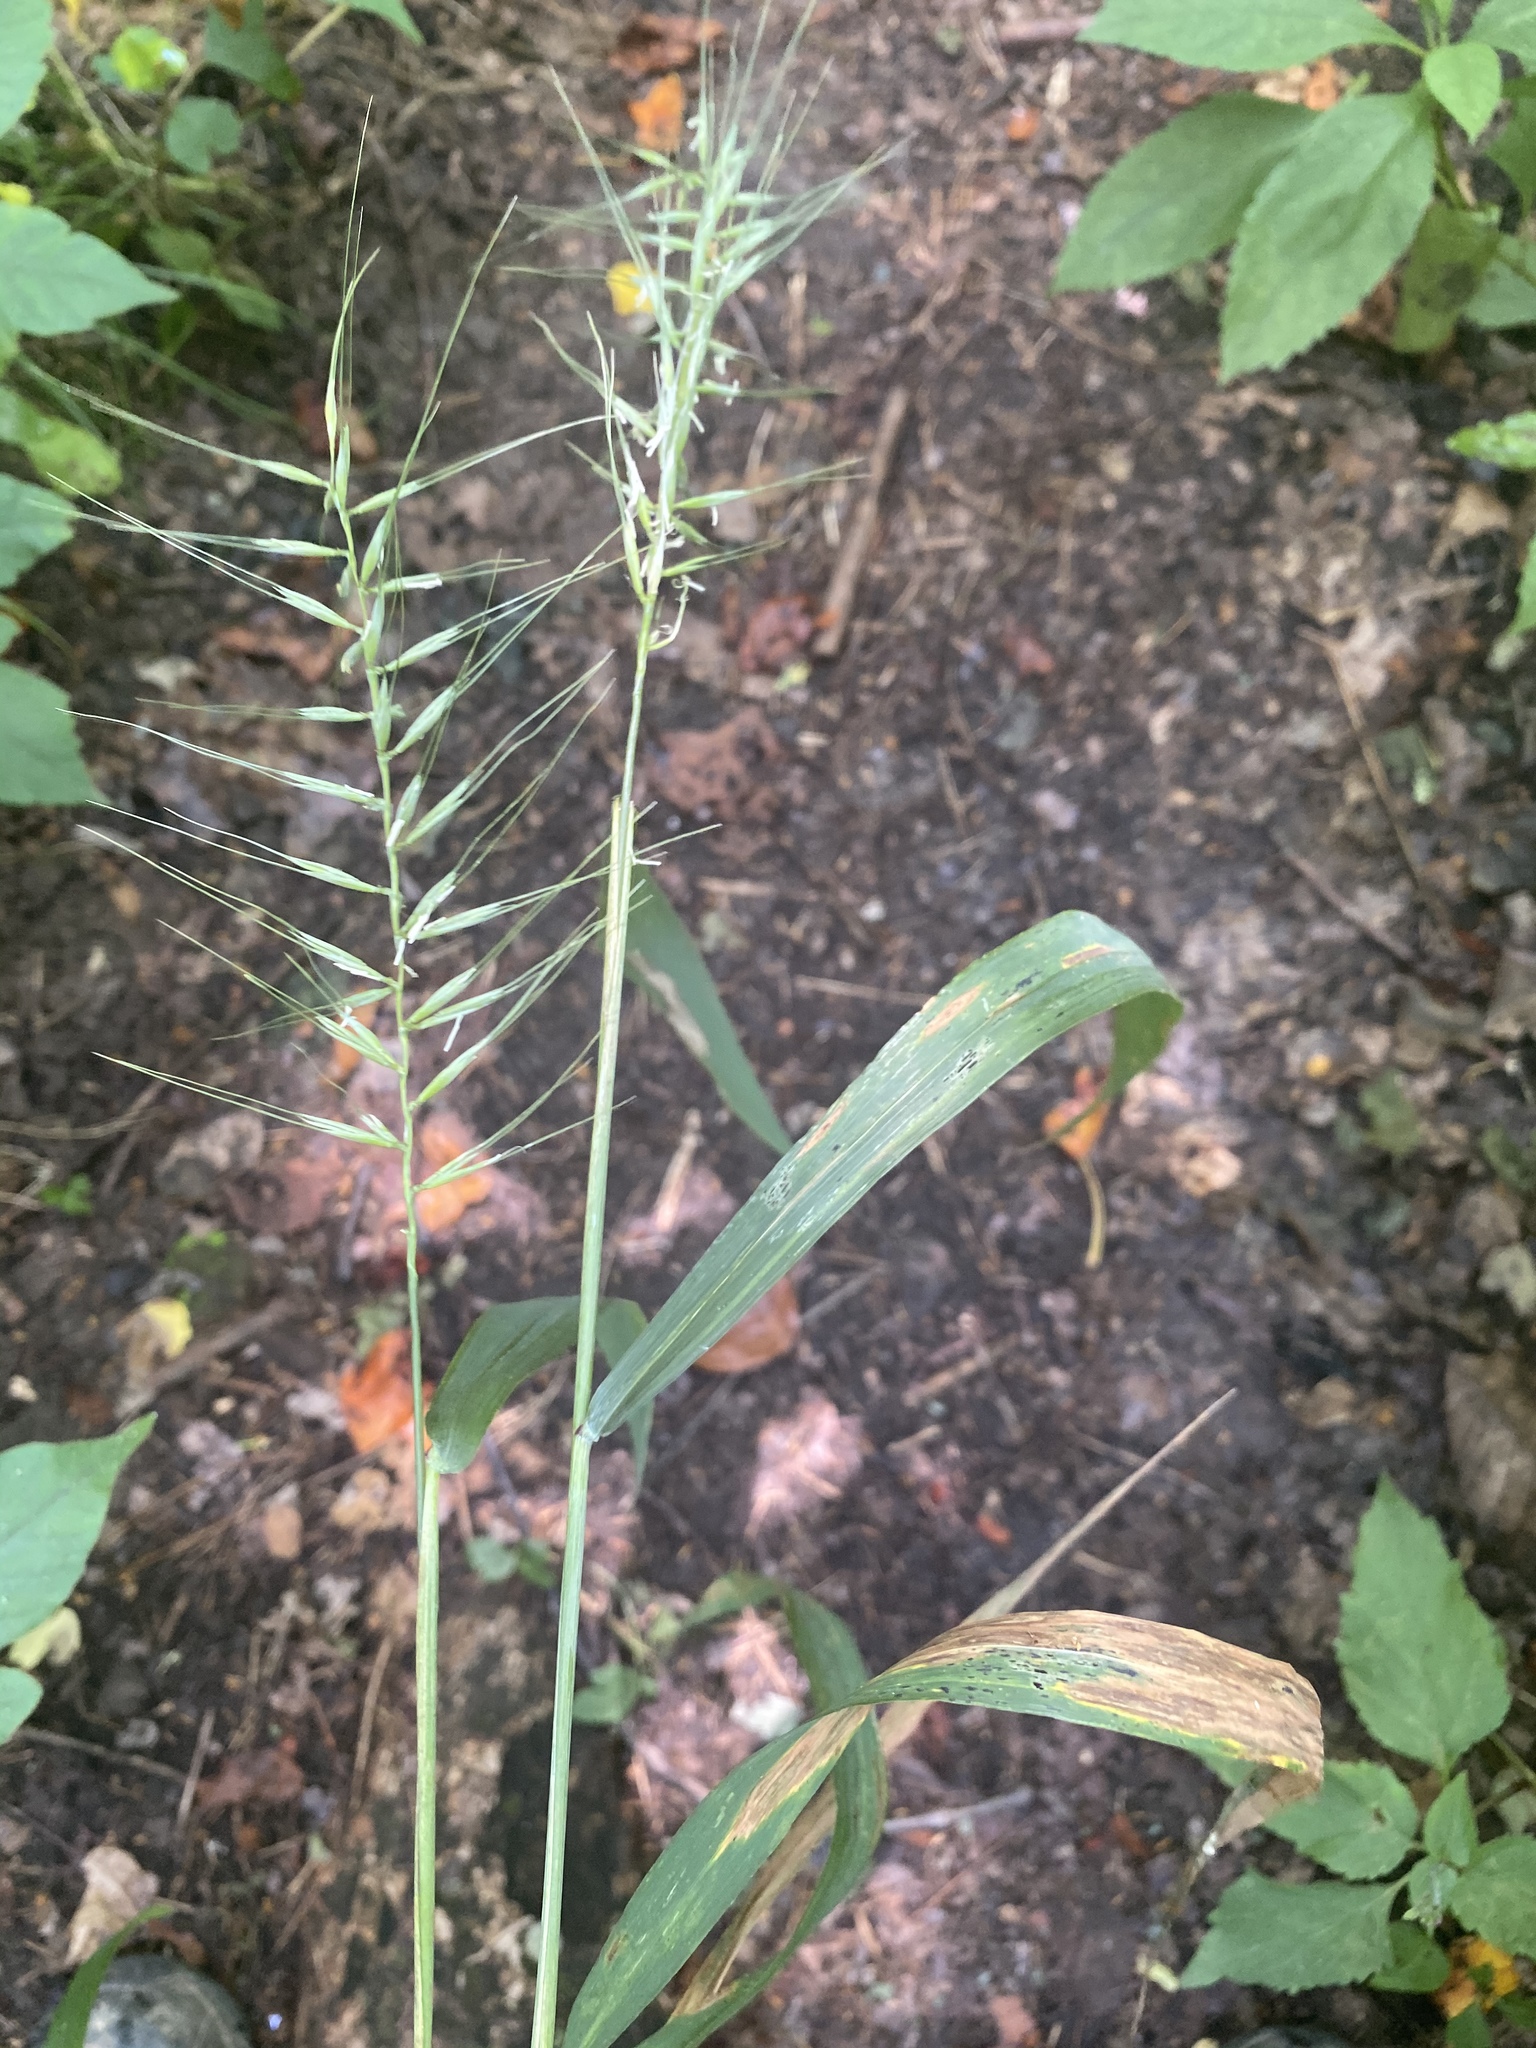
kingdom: Plantae
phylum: Tracheophyta
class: Liliopsida
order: Poales
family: Poaceae
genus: Elymus
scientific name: Elymus hystrix
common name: Bottlebrush grass
